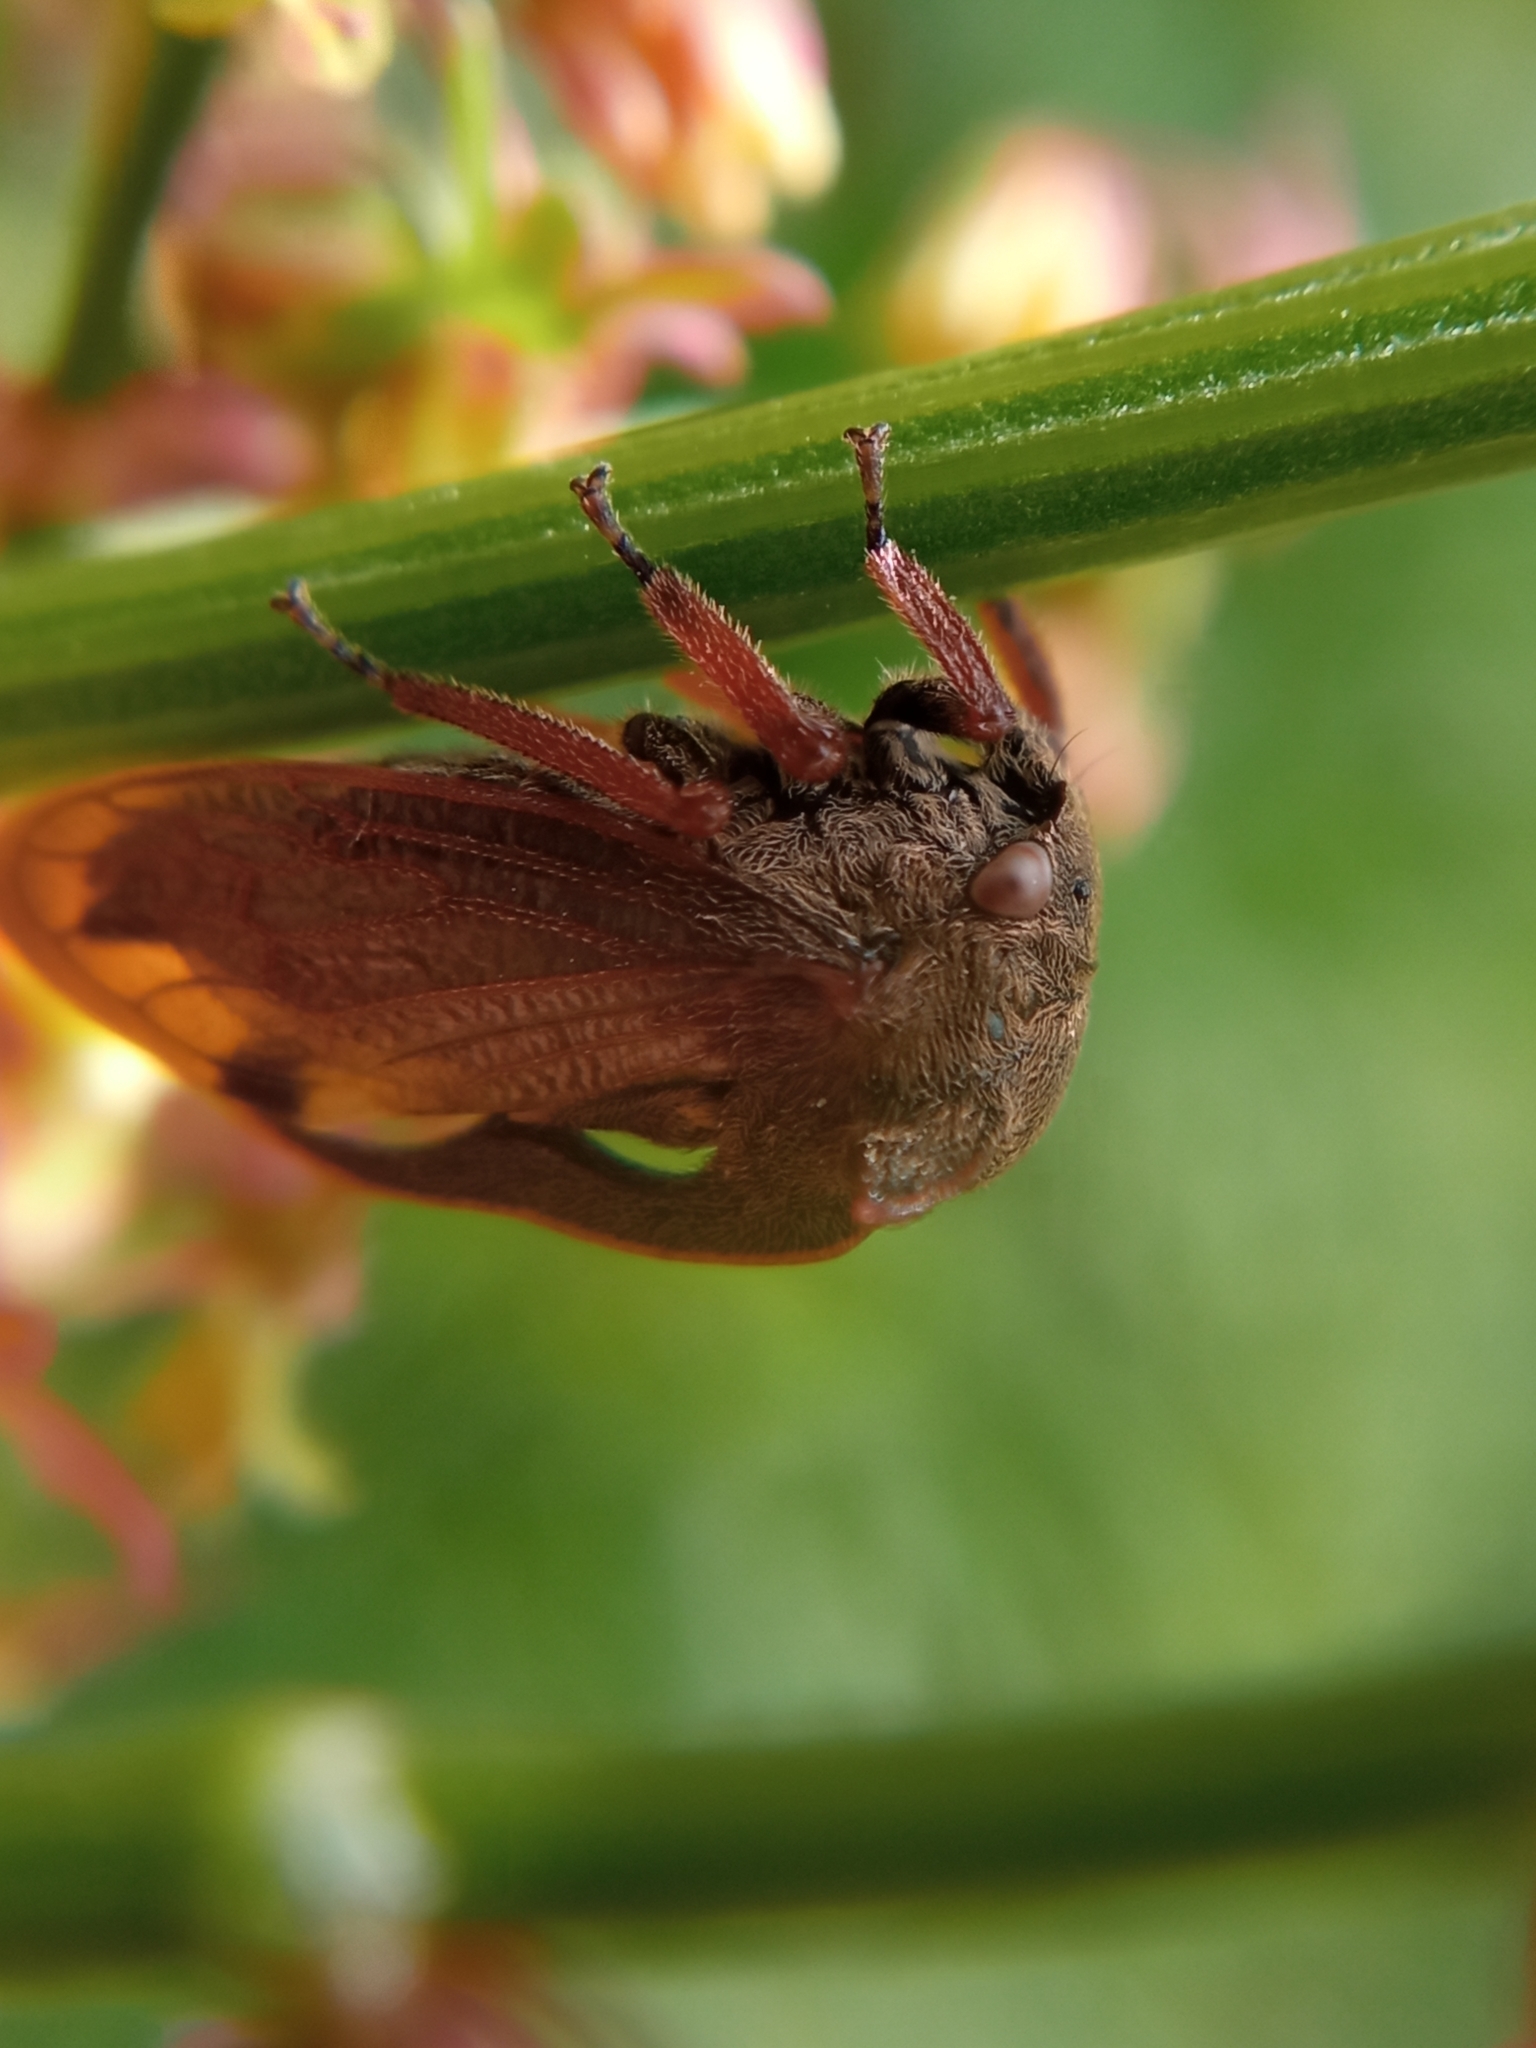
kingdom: Animalia
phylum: Arthropoda
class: Insecta
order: Hemiptera
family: Membracidae
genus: Centrotus
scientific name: Centrotus cornuta
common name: Treehopper
